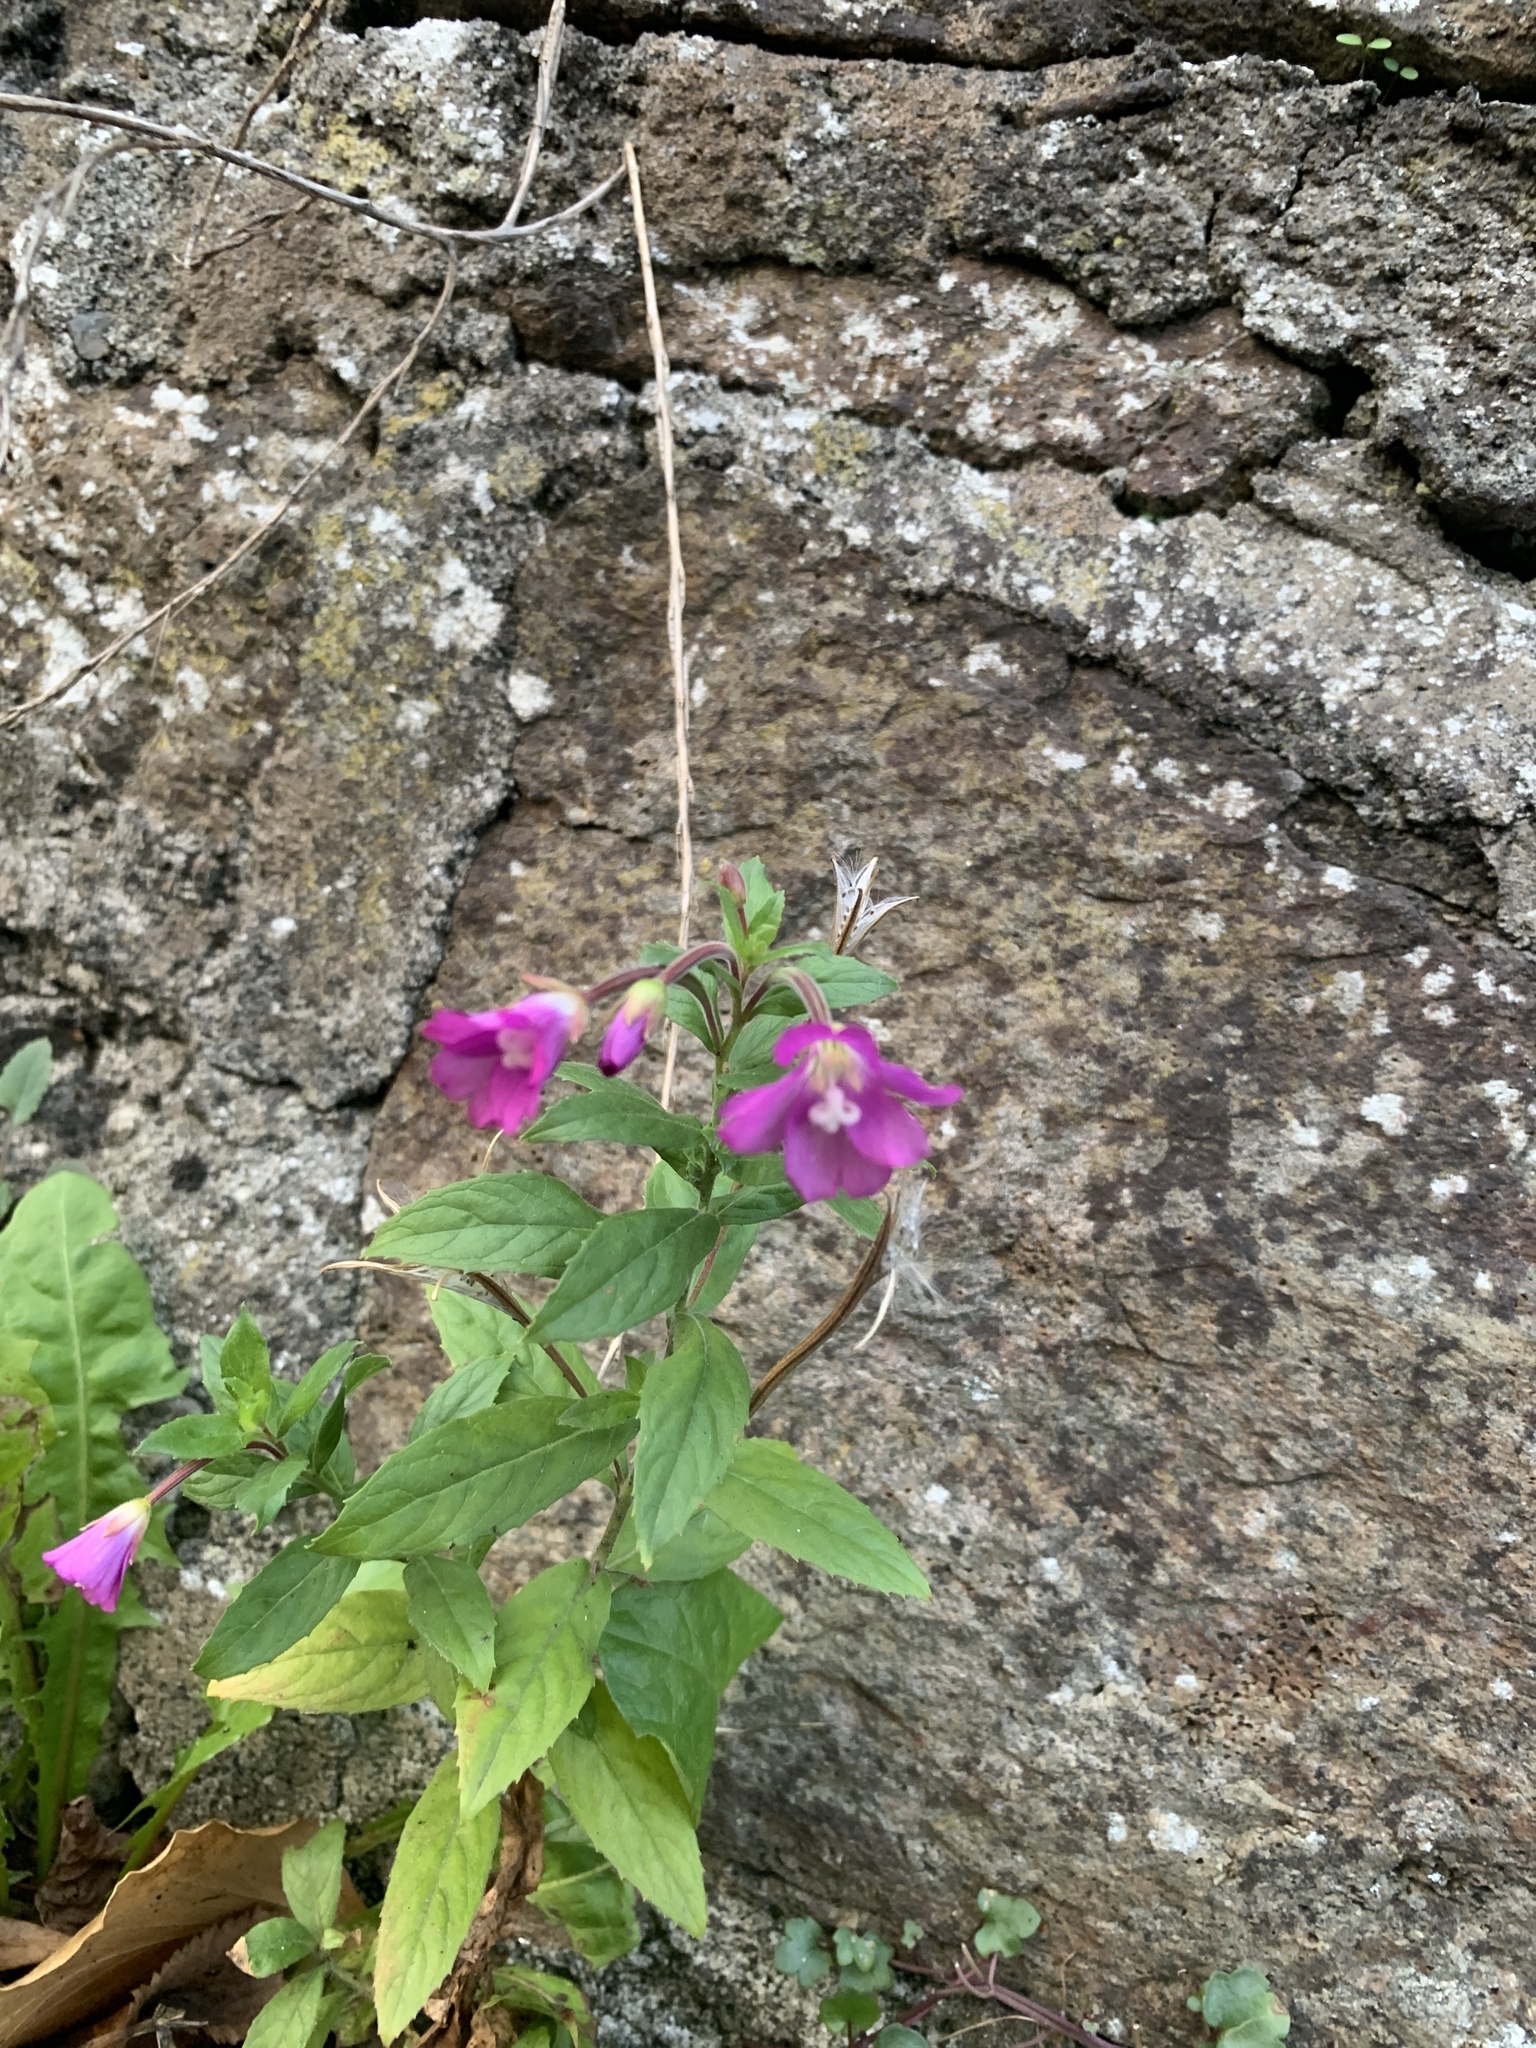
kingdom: Plantae
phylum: Tracheophyta
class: Magnoliopsida
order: Myrtales
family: Onagraceae
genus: Epilobium
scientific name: Epilobium hirsutum
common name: Great willowherb
